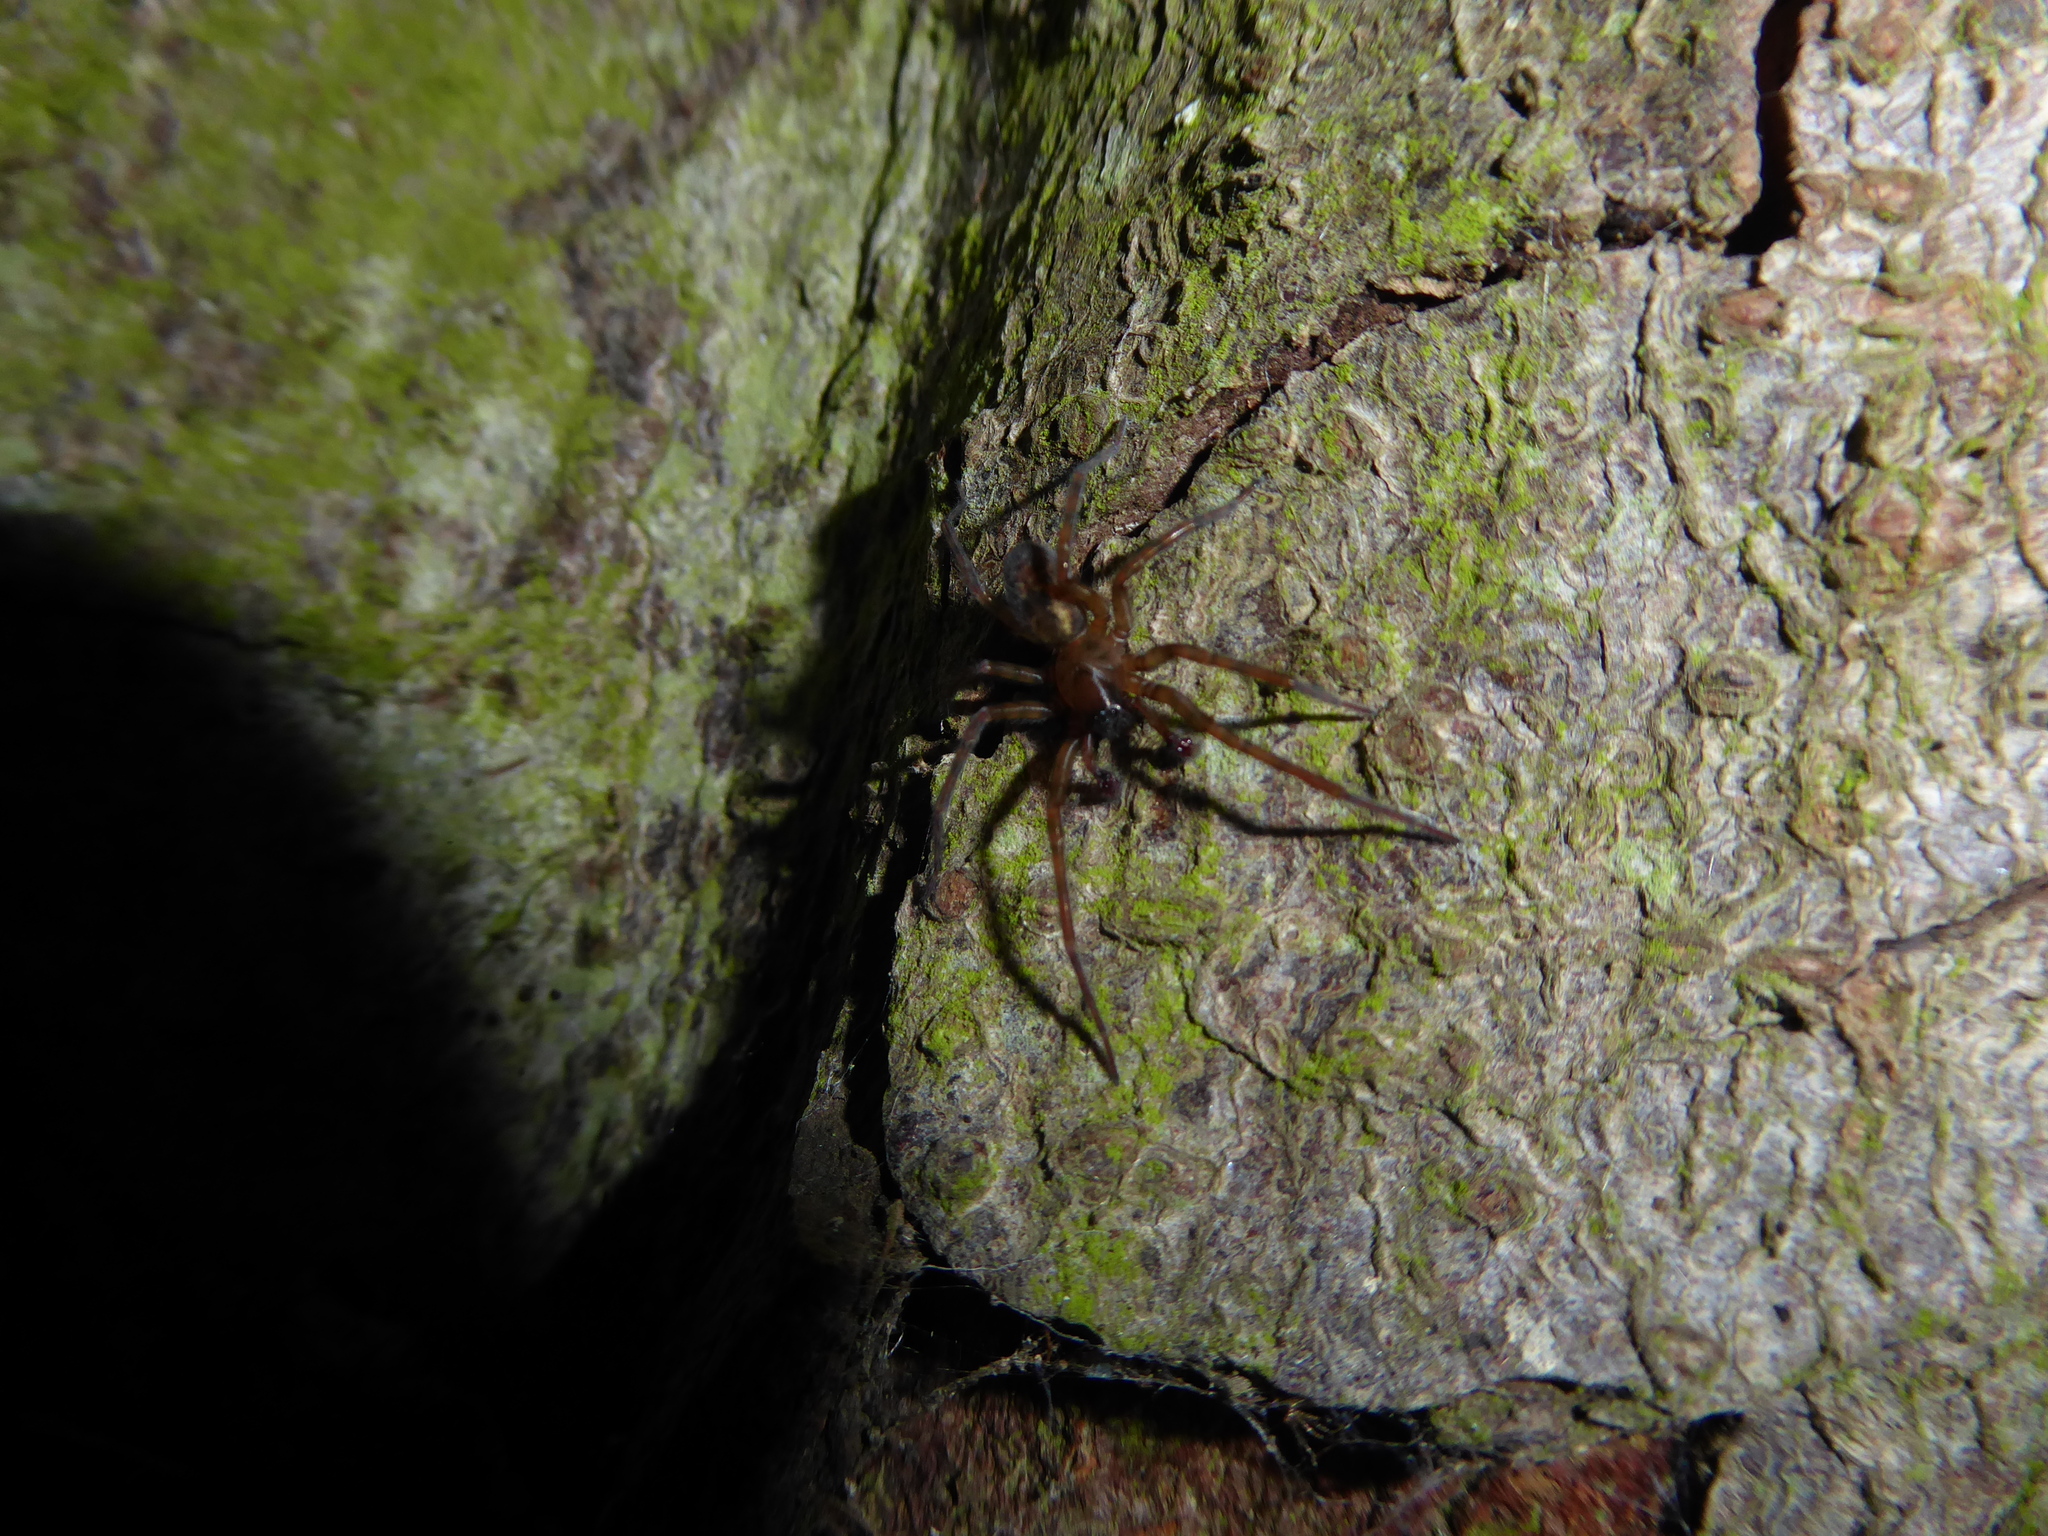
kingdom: Animalia
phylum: Arthropoda
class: Arachnida
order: Araneae
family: Amaurobiidae
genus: Amaurobius
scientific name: Amaurobius
